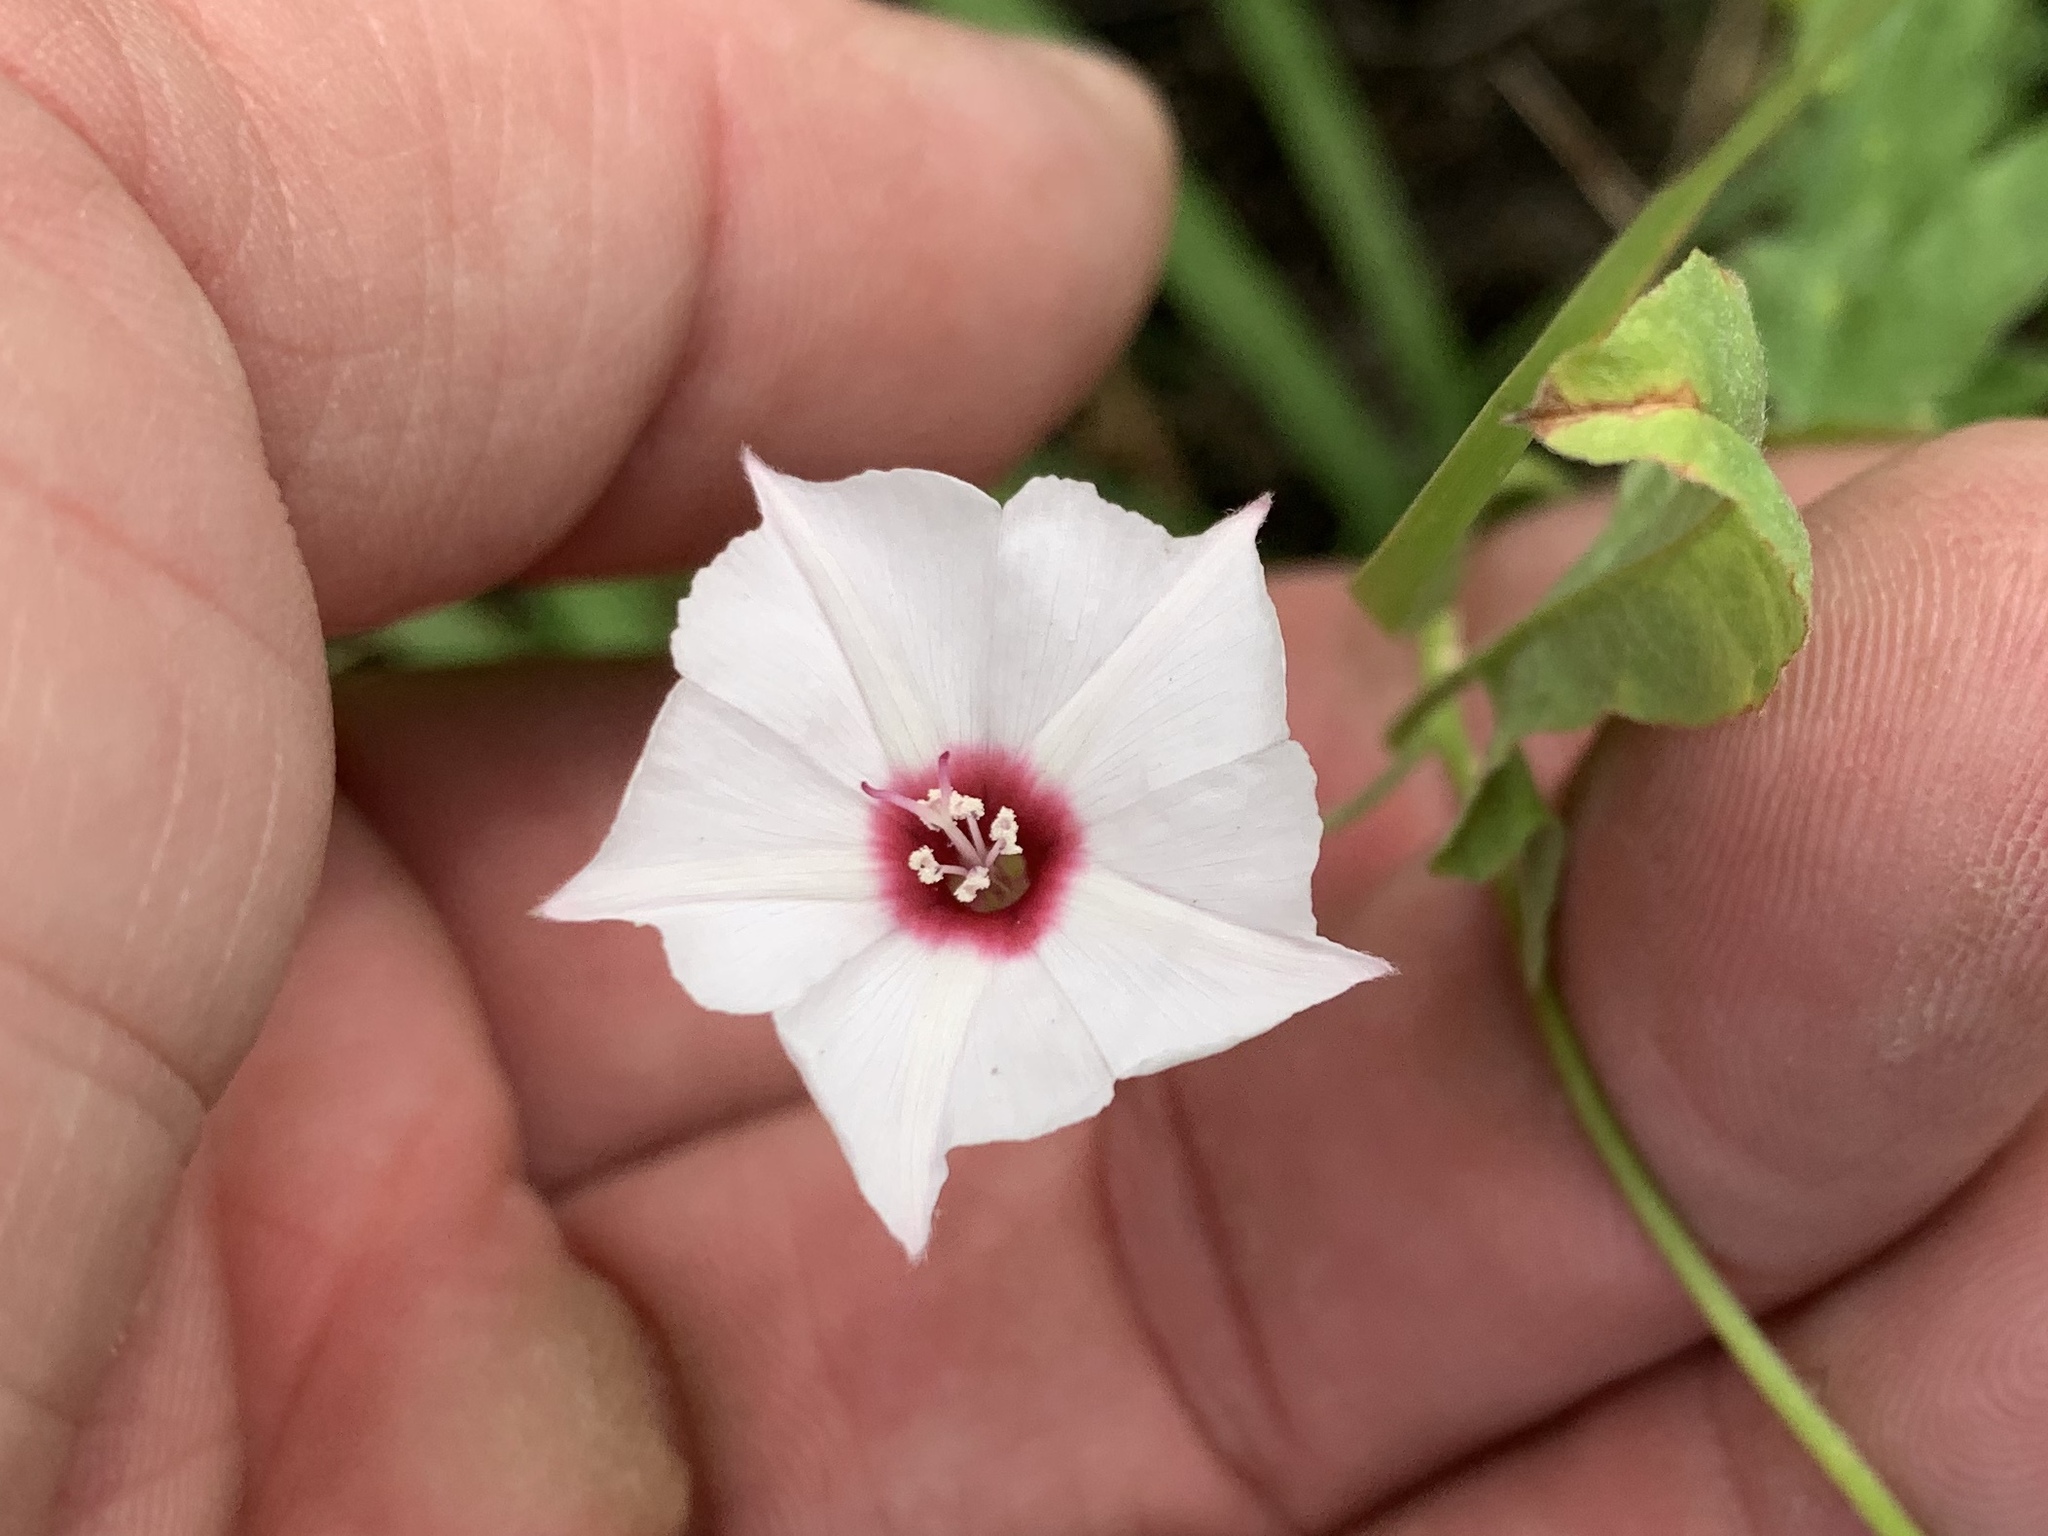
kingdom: Plantae
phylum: Tracheophyta
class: Magnoliopsida
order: Solanales
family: Convolvulaceae
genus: Convolvulus
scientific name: Convolvulus equitans
